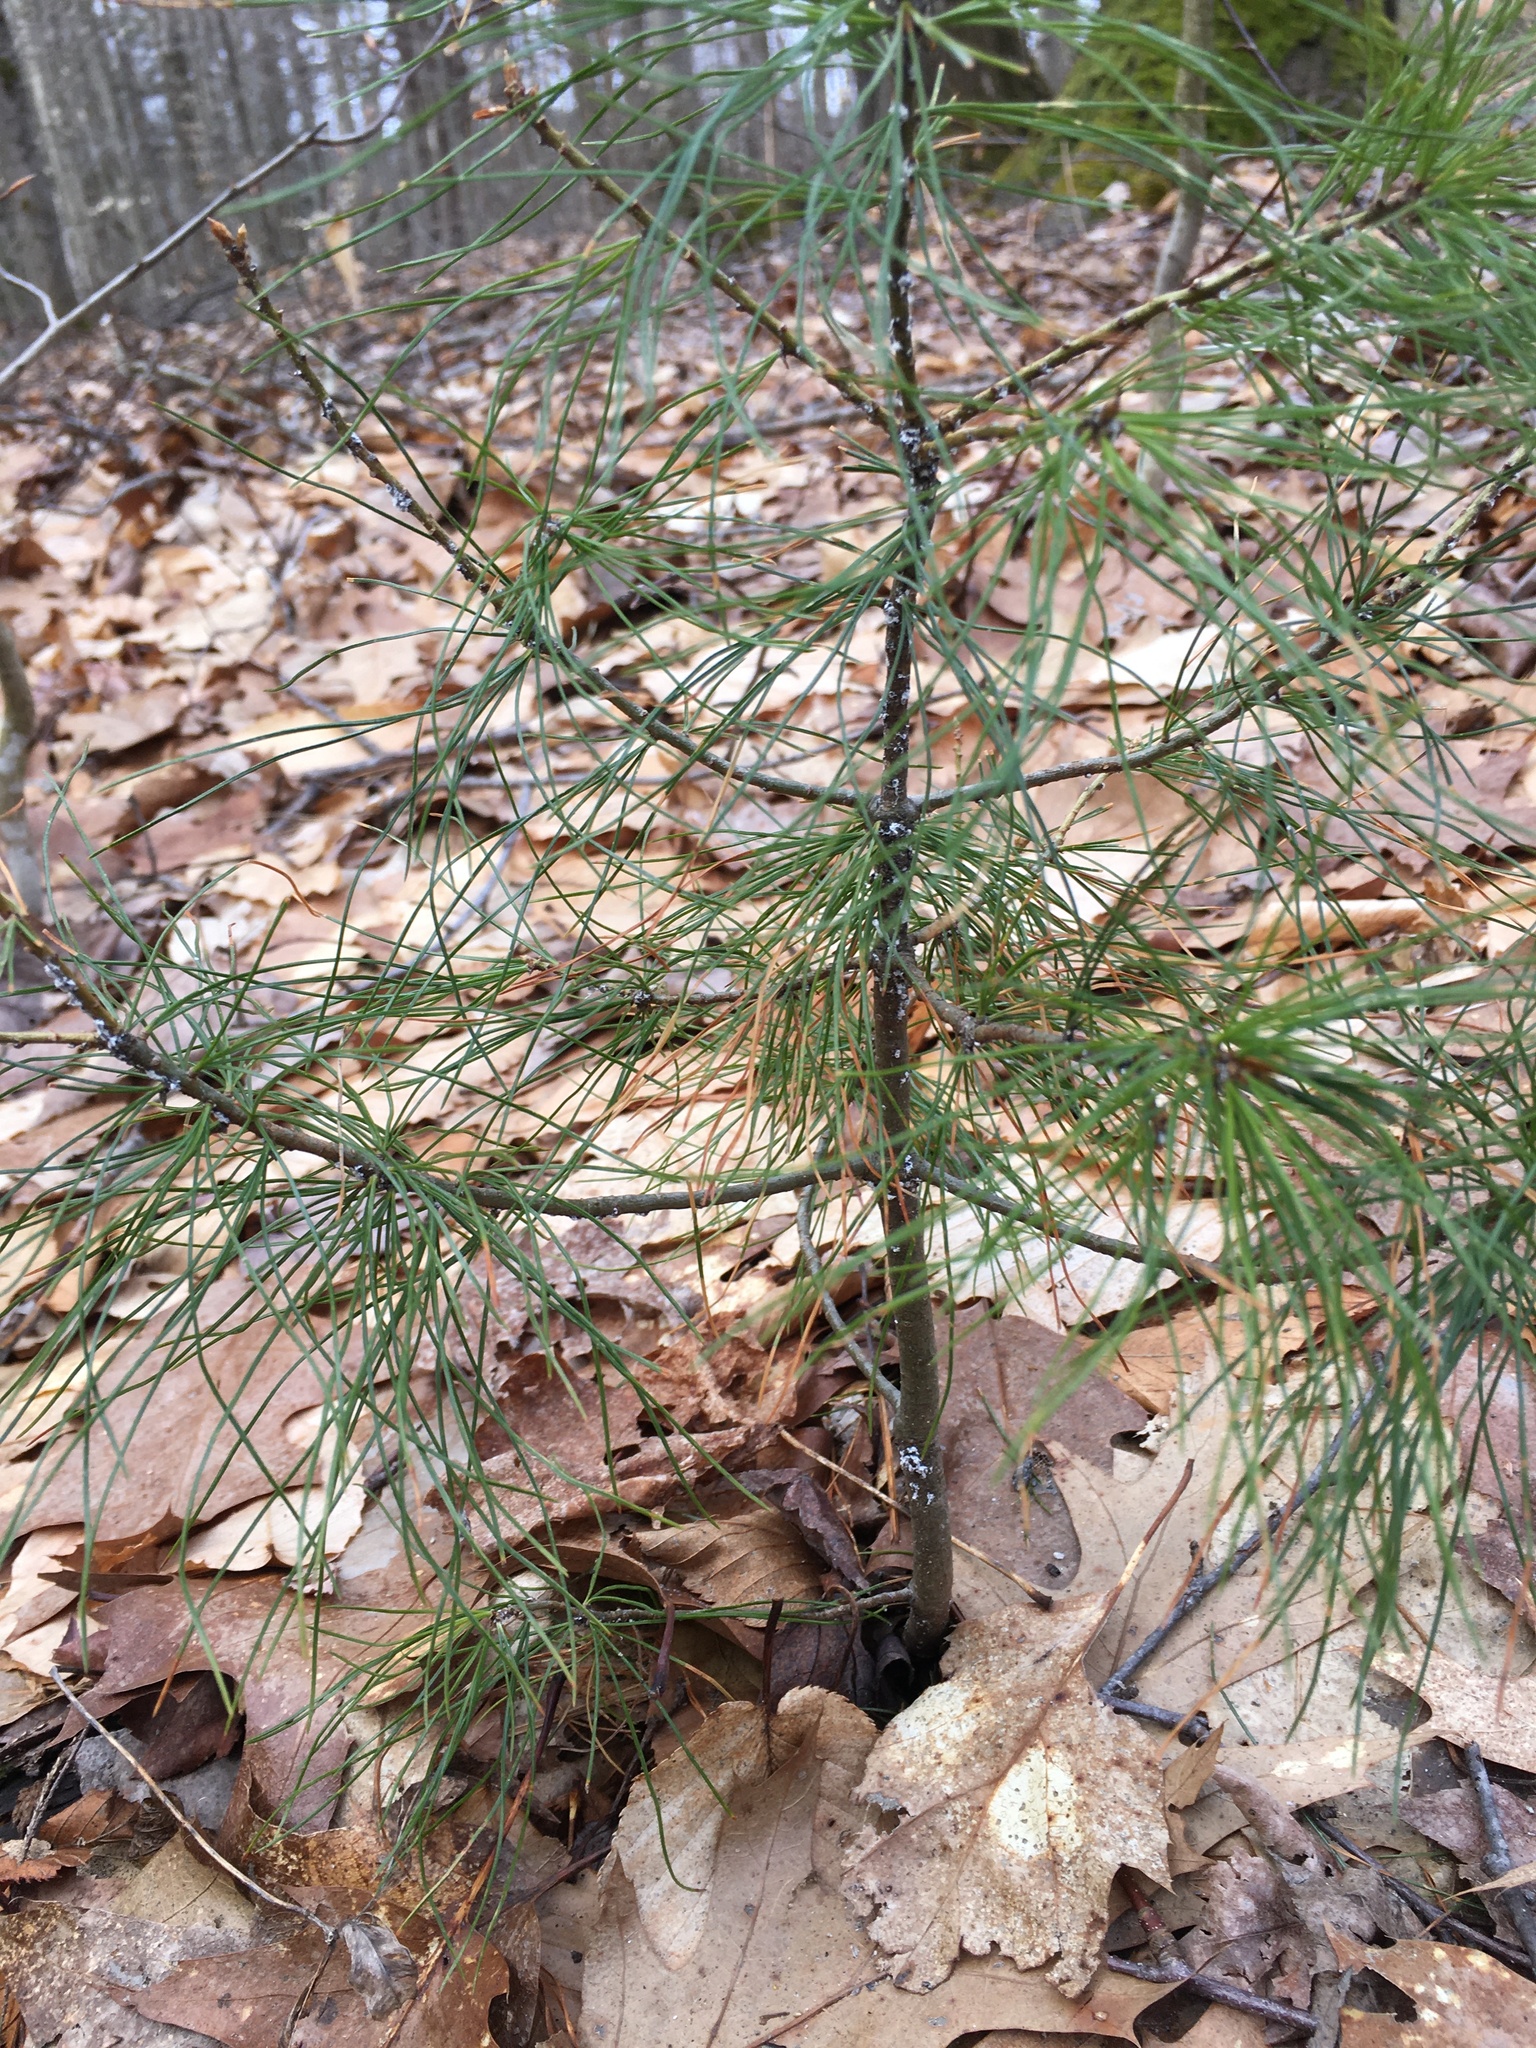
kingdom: Plantae
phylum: Tracheophyta
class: Pinopsida
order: Pinales
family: Pinaceae
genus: Pinus
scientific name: Pinus strobus
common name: Weymouth pine
